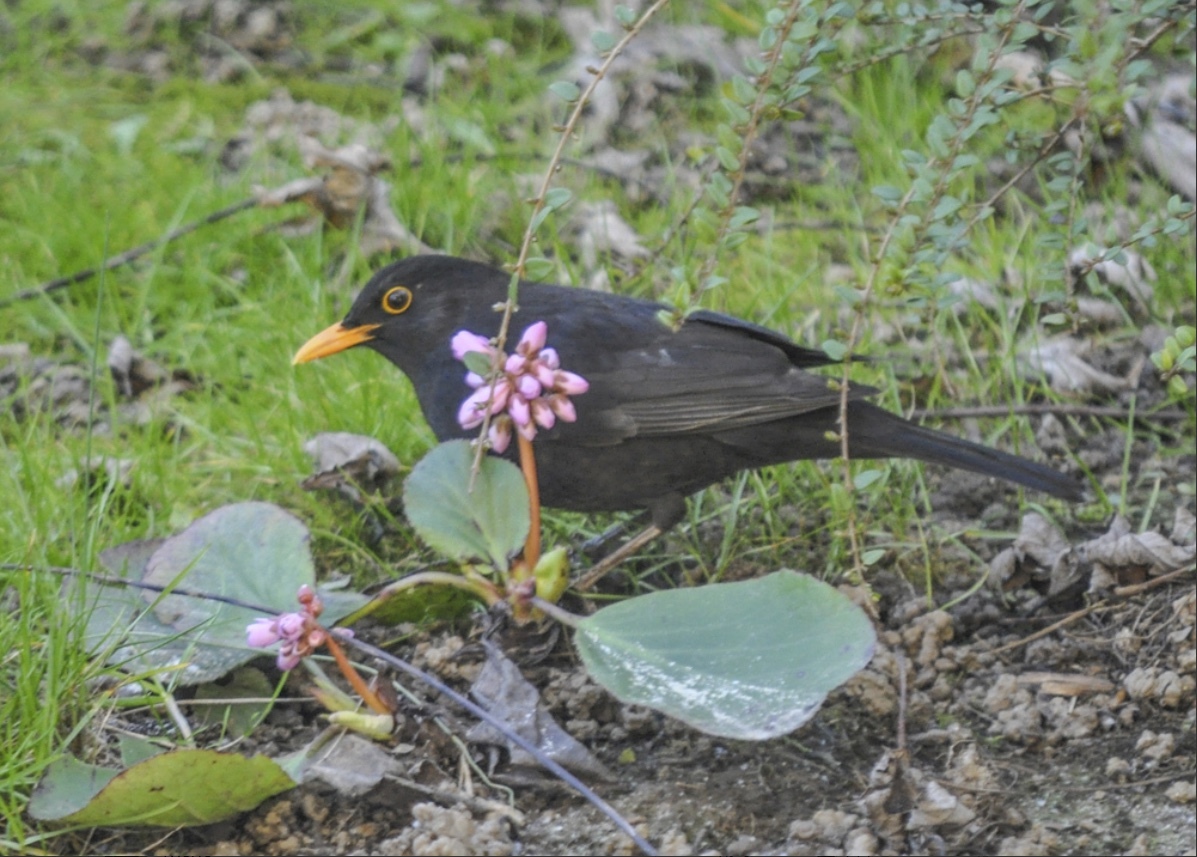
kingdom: Animalia
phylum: Chordata
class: Aves
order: Passeriformes
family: Turdidae
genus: Turdus
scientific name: Turdus merula
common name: Common blackbird
